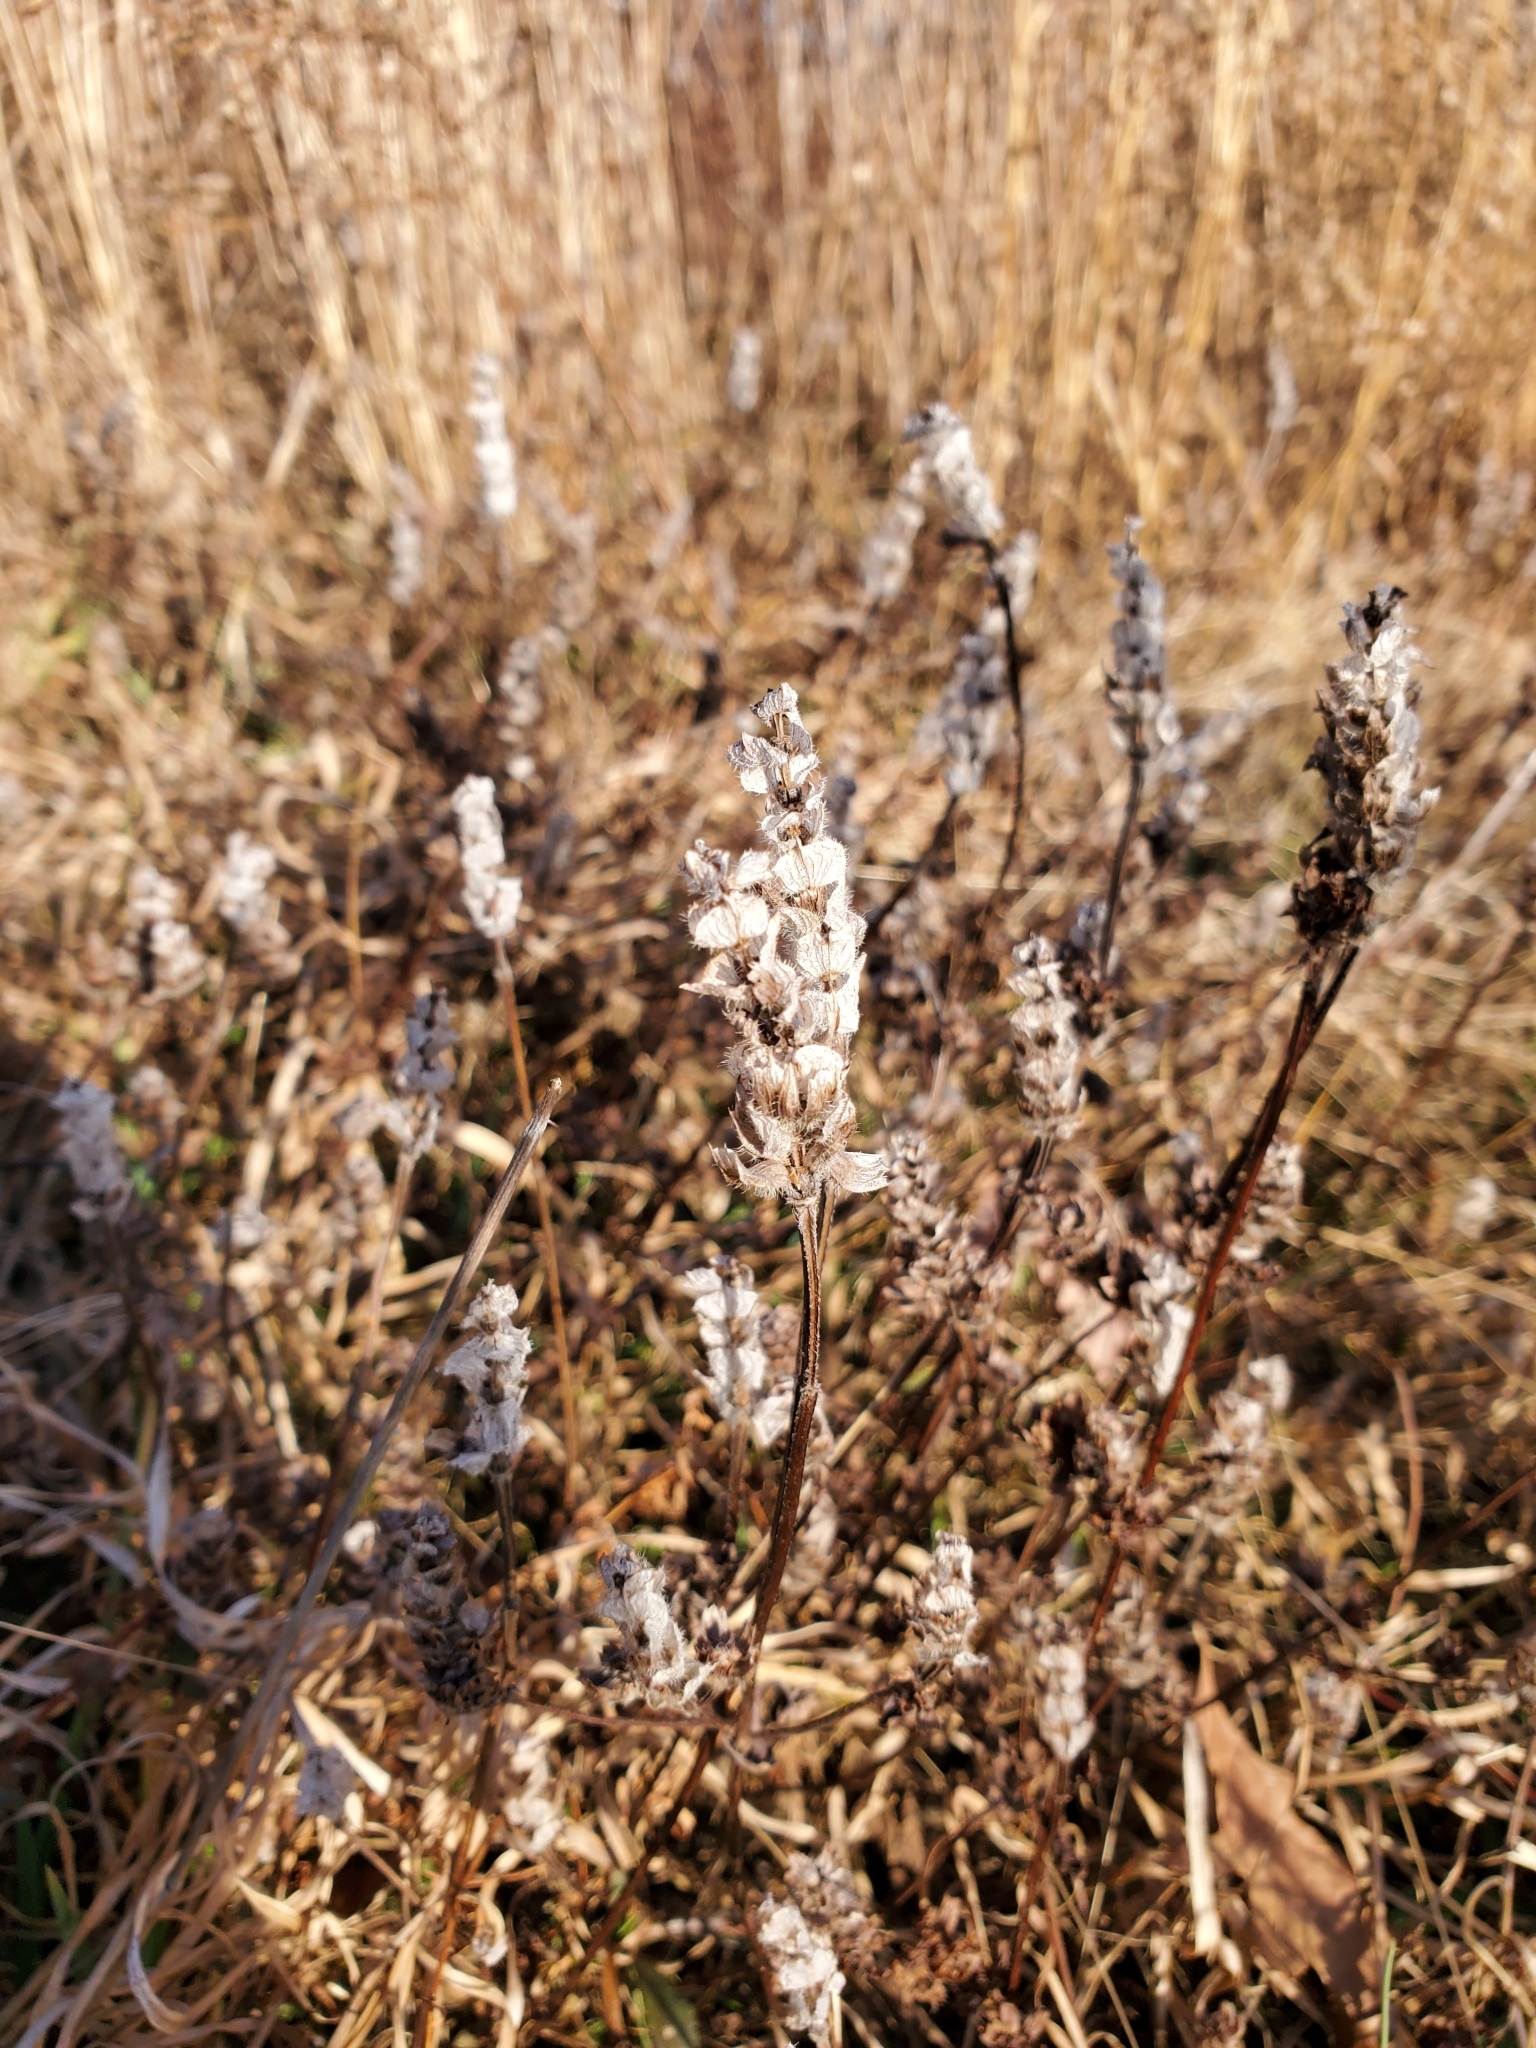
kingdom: Plantae
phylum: Tracheophyta
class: Magnoliopsida
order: Lamiales
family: Lamiaceae
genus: Prunella
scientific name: Prunella vulgaris
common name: Heal-all
